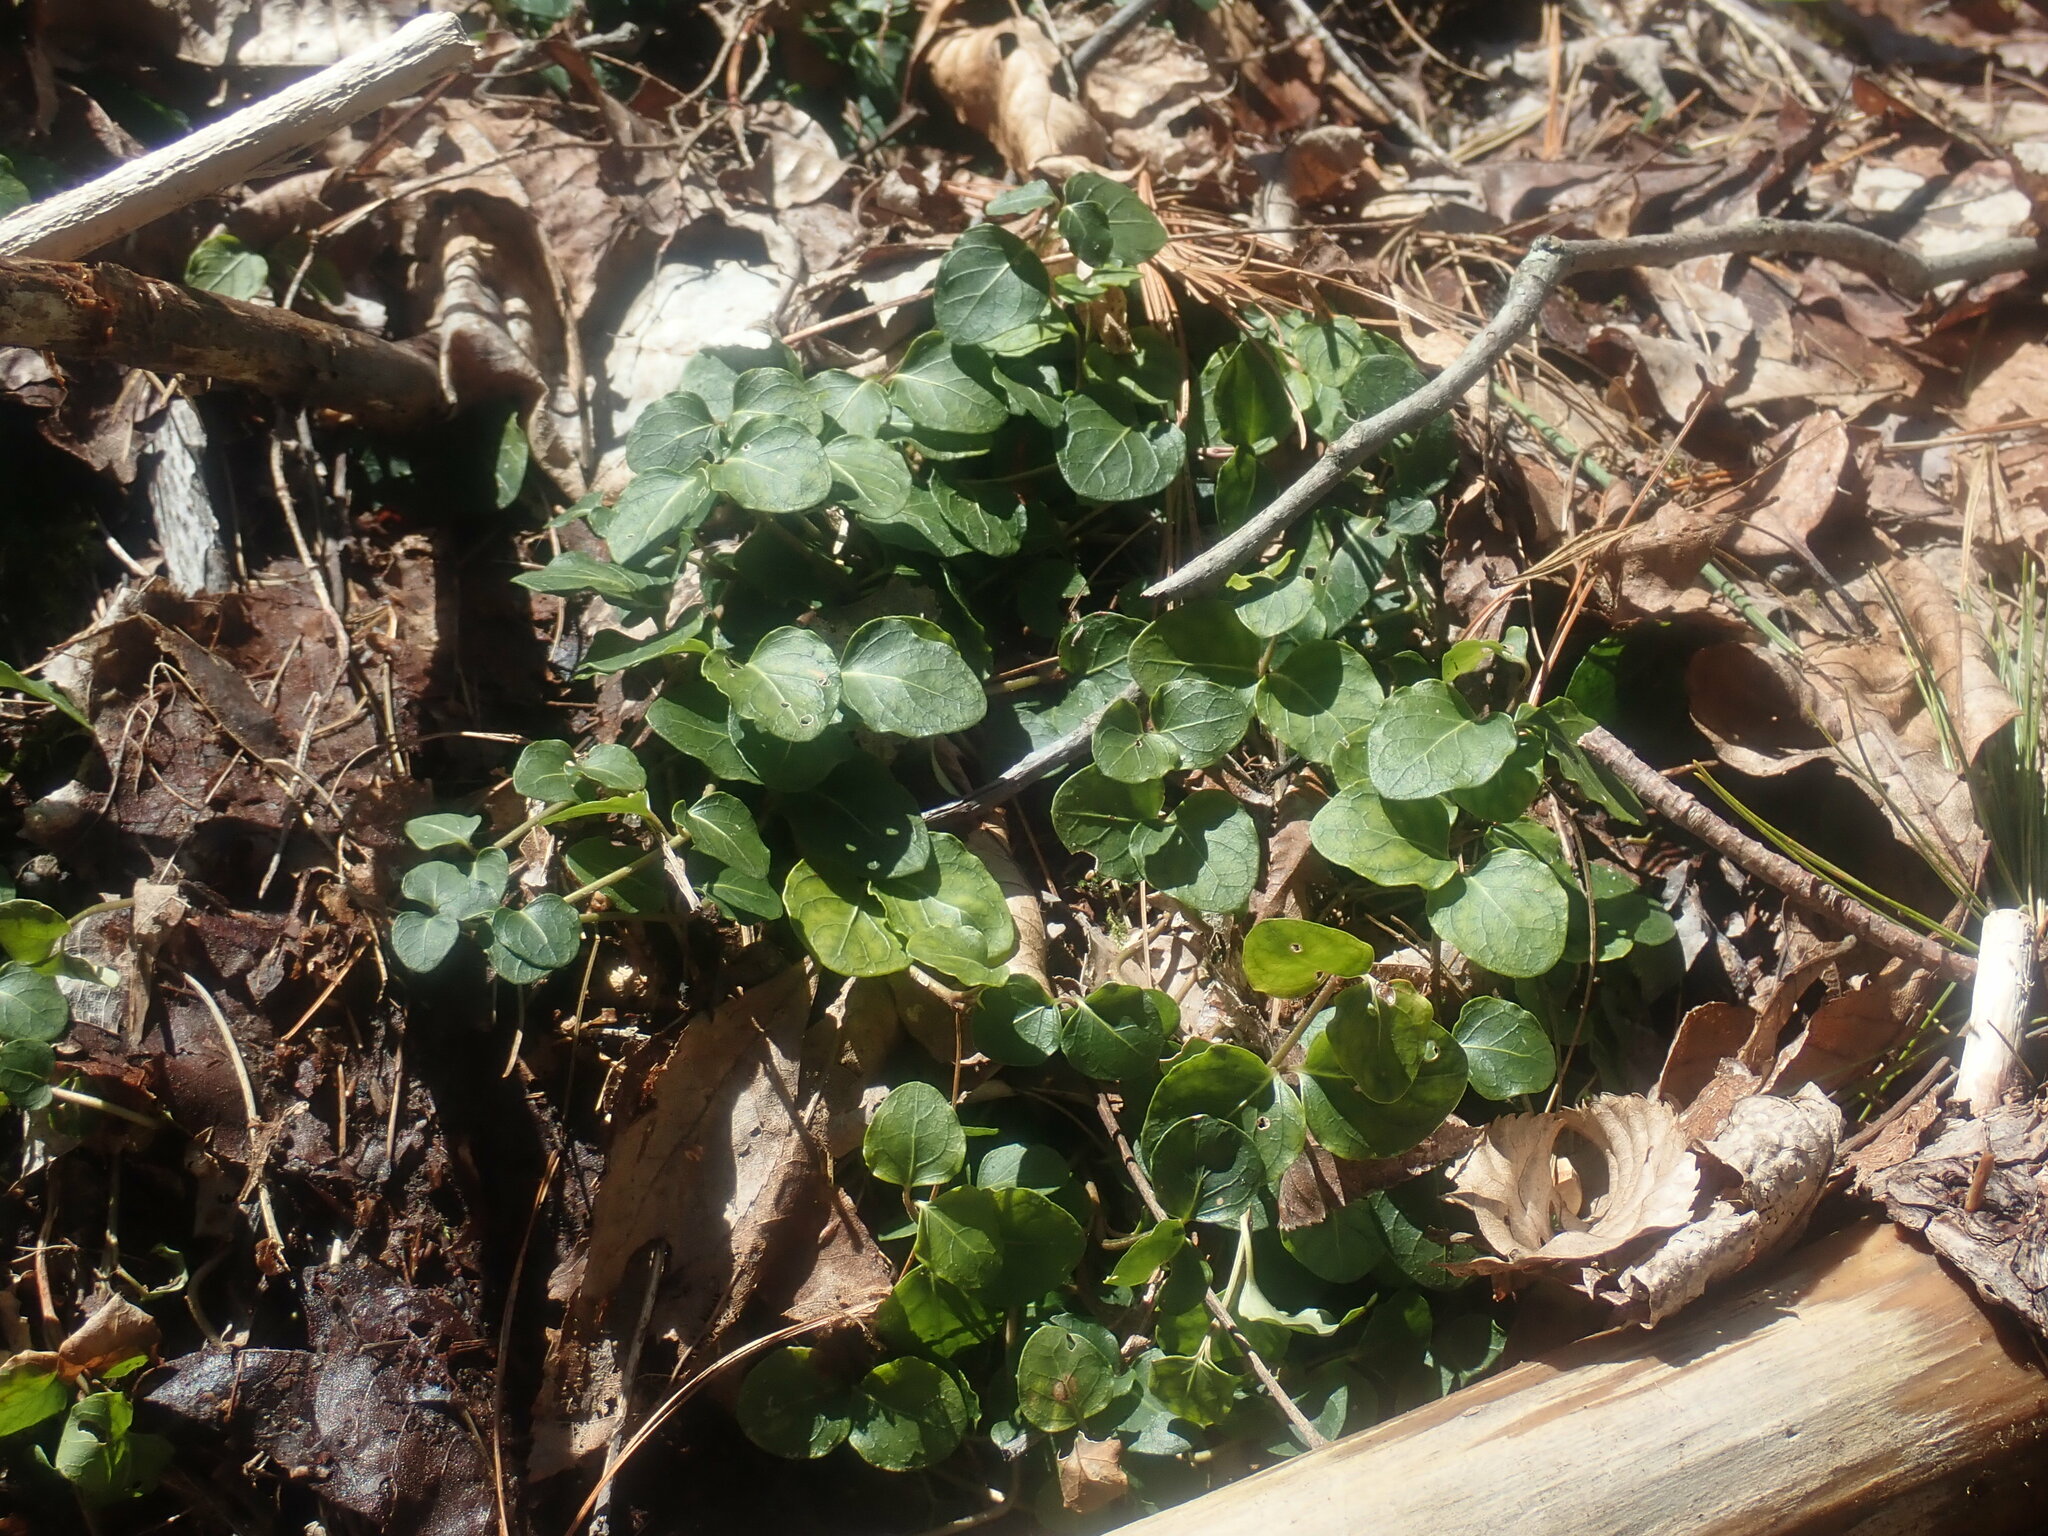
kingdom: Plantae
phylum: Tracheophyta
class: Magnoliopsida
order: Gentianales
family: Rubiaceae
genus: Mitchella
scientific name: Mitchella repens
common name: Partridge-berry
